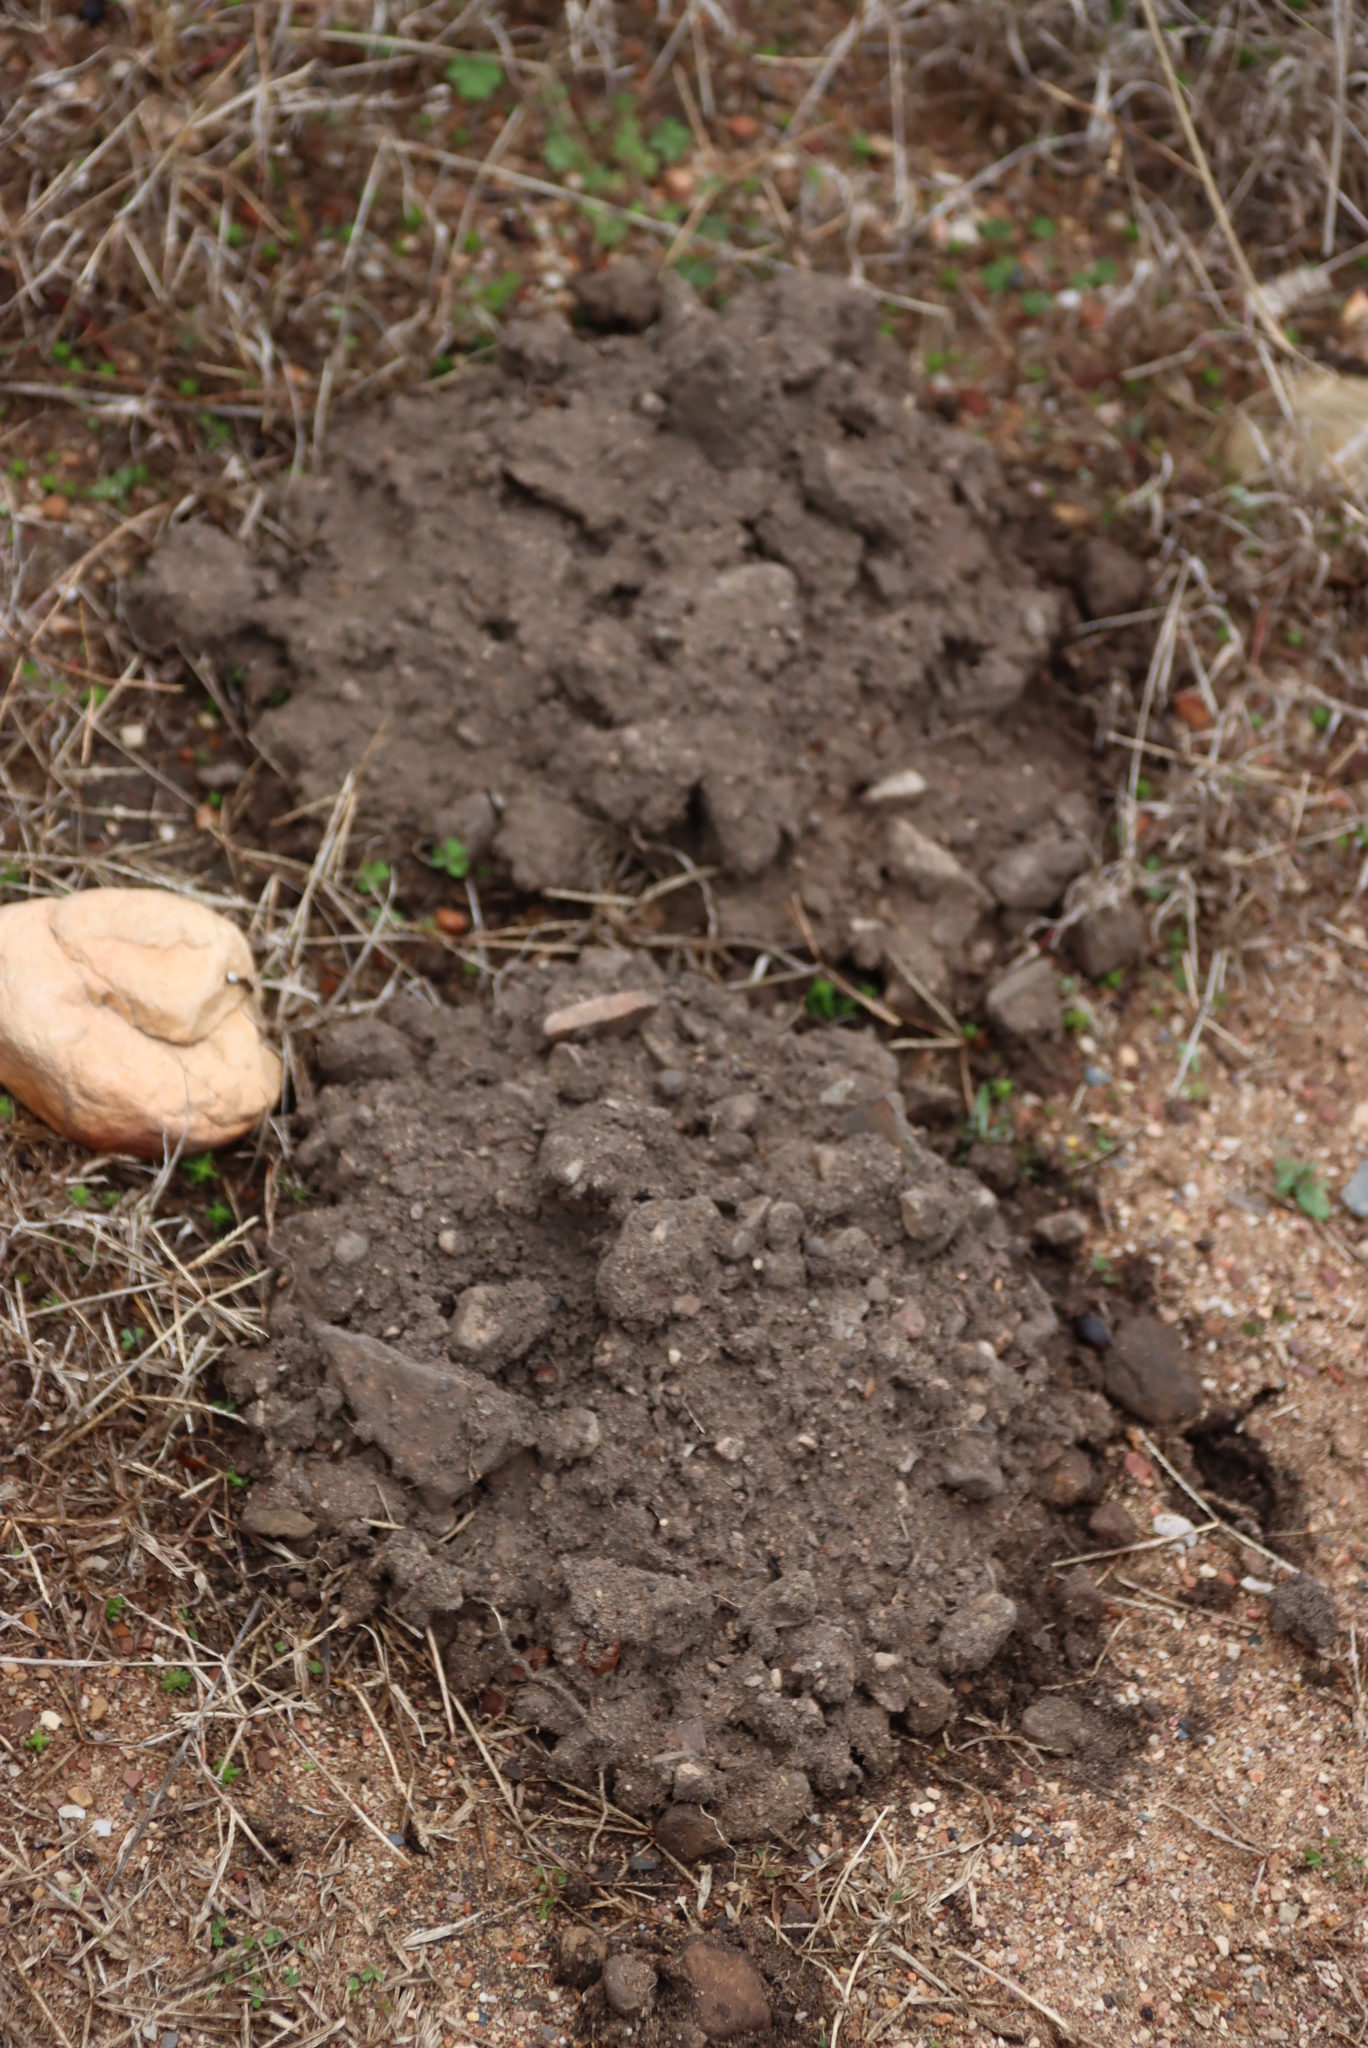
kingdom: Animalia
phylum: Chordata
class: Mammalia
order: Rodentia
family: Bathyergidae
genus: Cryptomys
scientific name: Cryptomys hottentotus
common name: Southern african mole-rat
